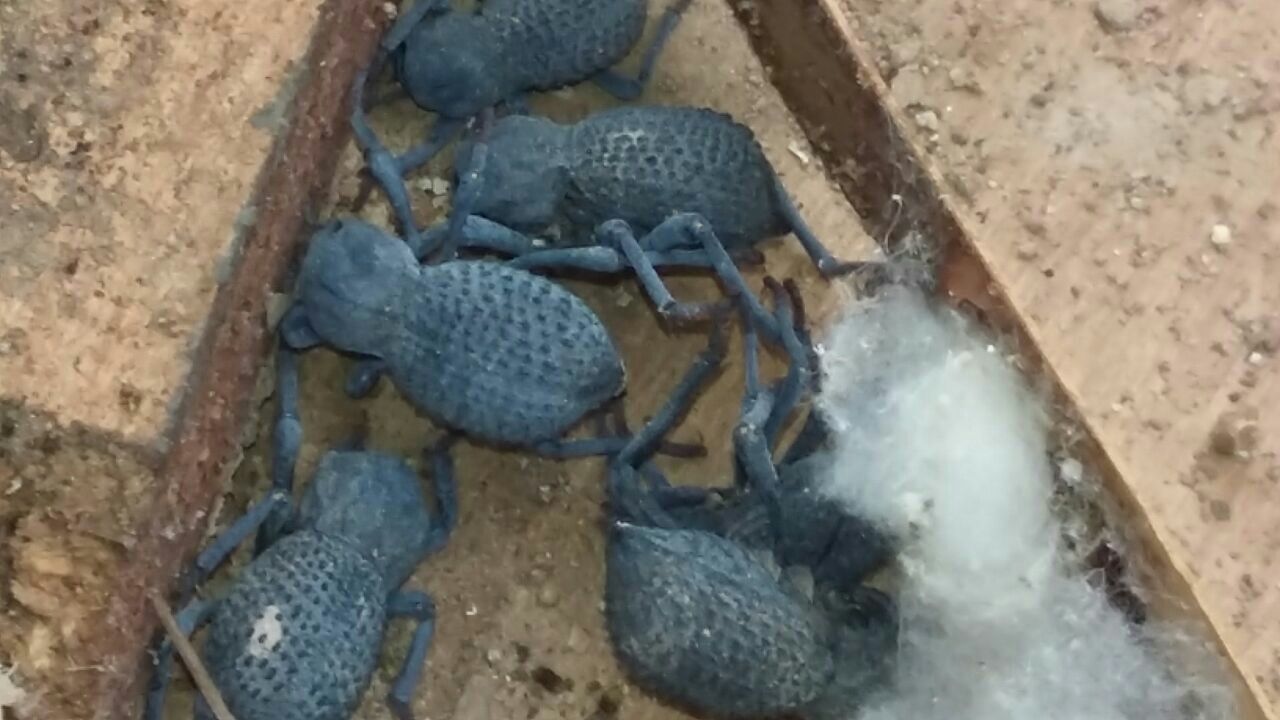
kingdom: Animalia
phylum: Arthropoda
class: Insecta
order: Coleoptera
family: Tenebrionidae
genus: Asbolus
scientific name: Asbolus verrucosus
